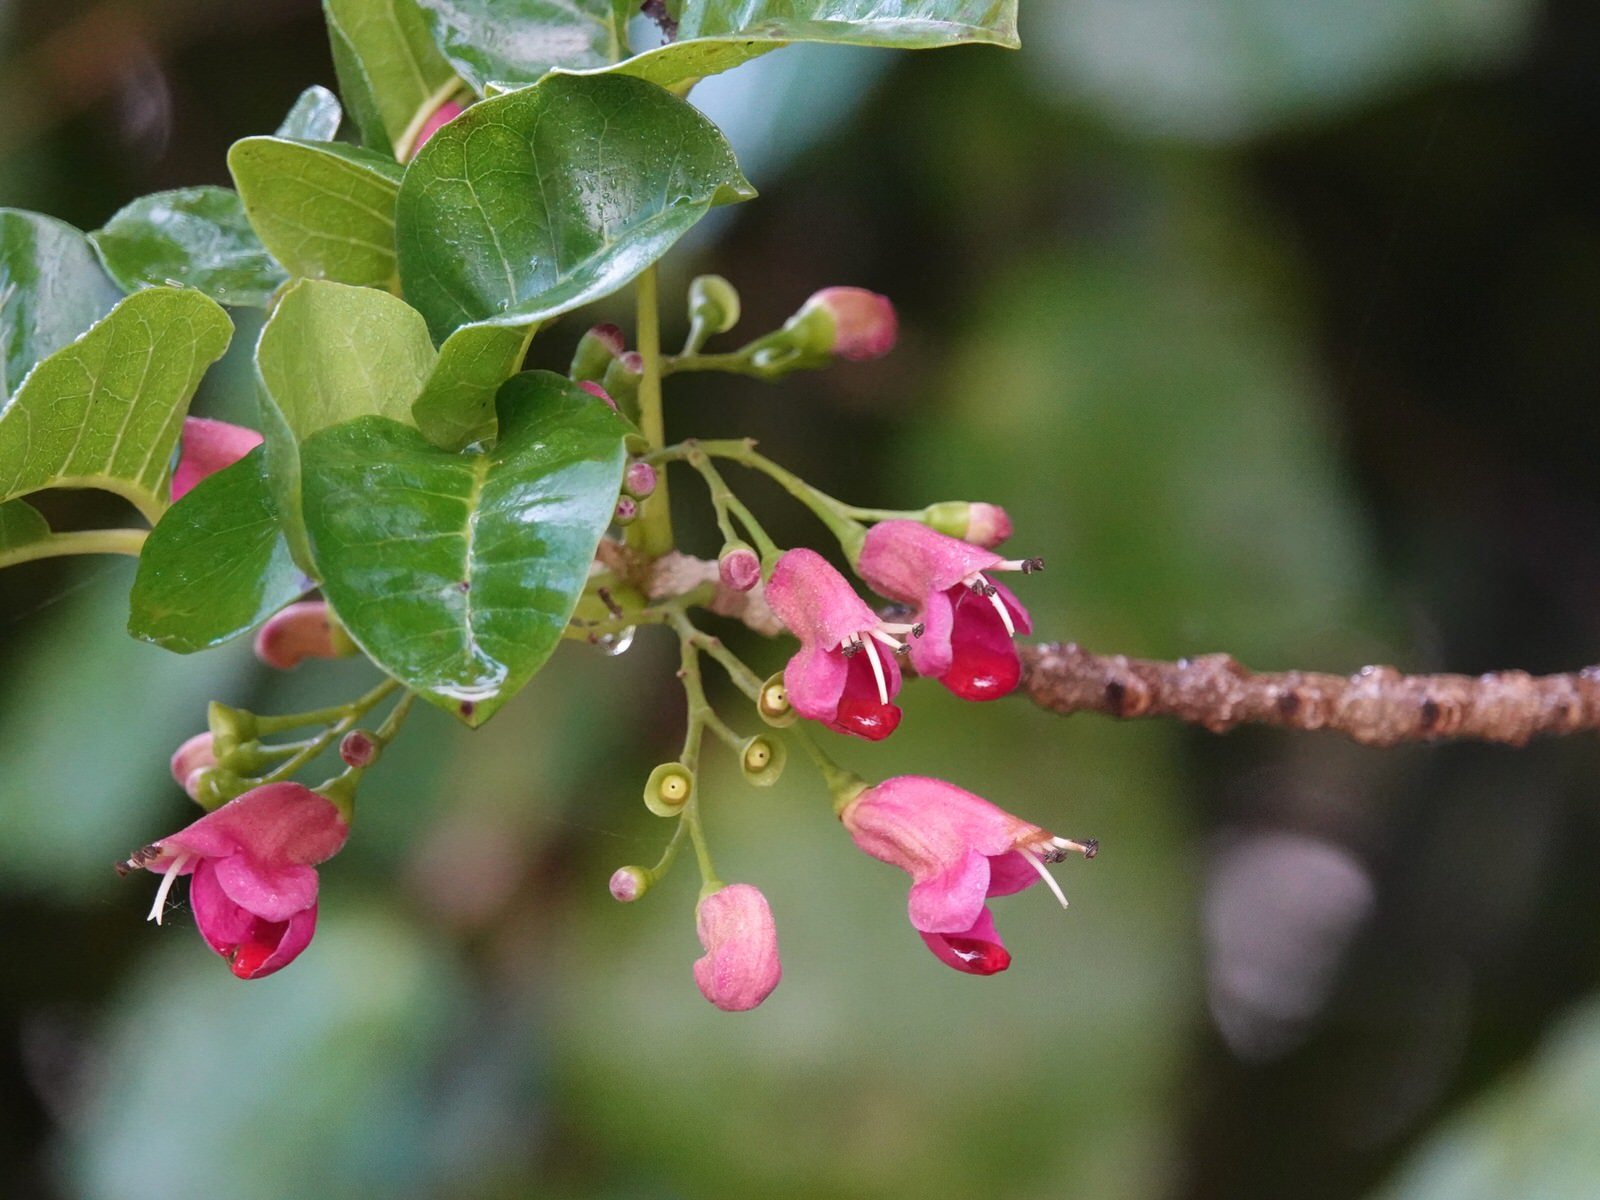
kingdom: Plantae
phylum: Tracheophyta
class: Magnoliopsida
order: Lamiales
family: Lamiaceae
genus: Vitex
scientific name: Vitex lucens
